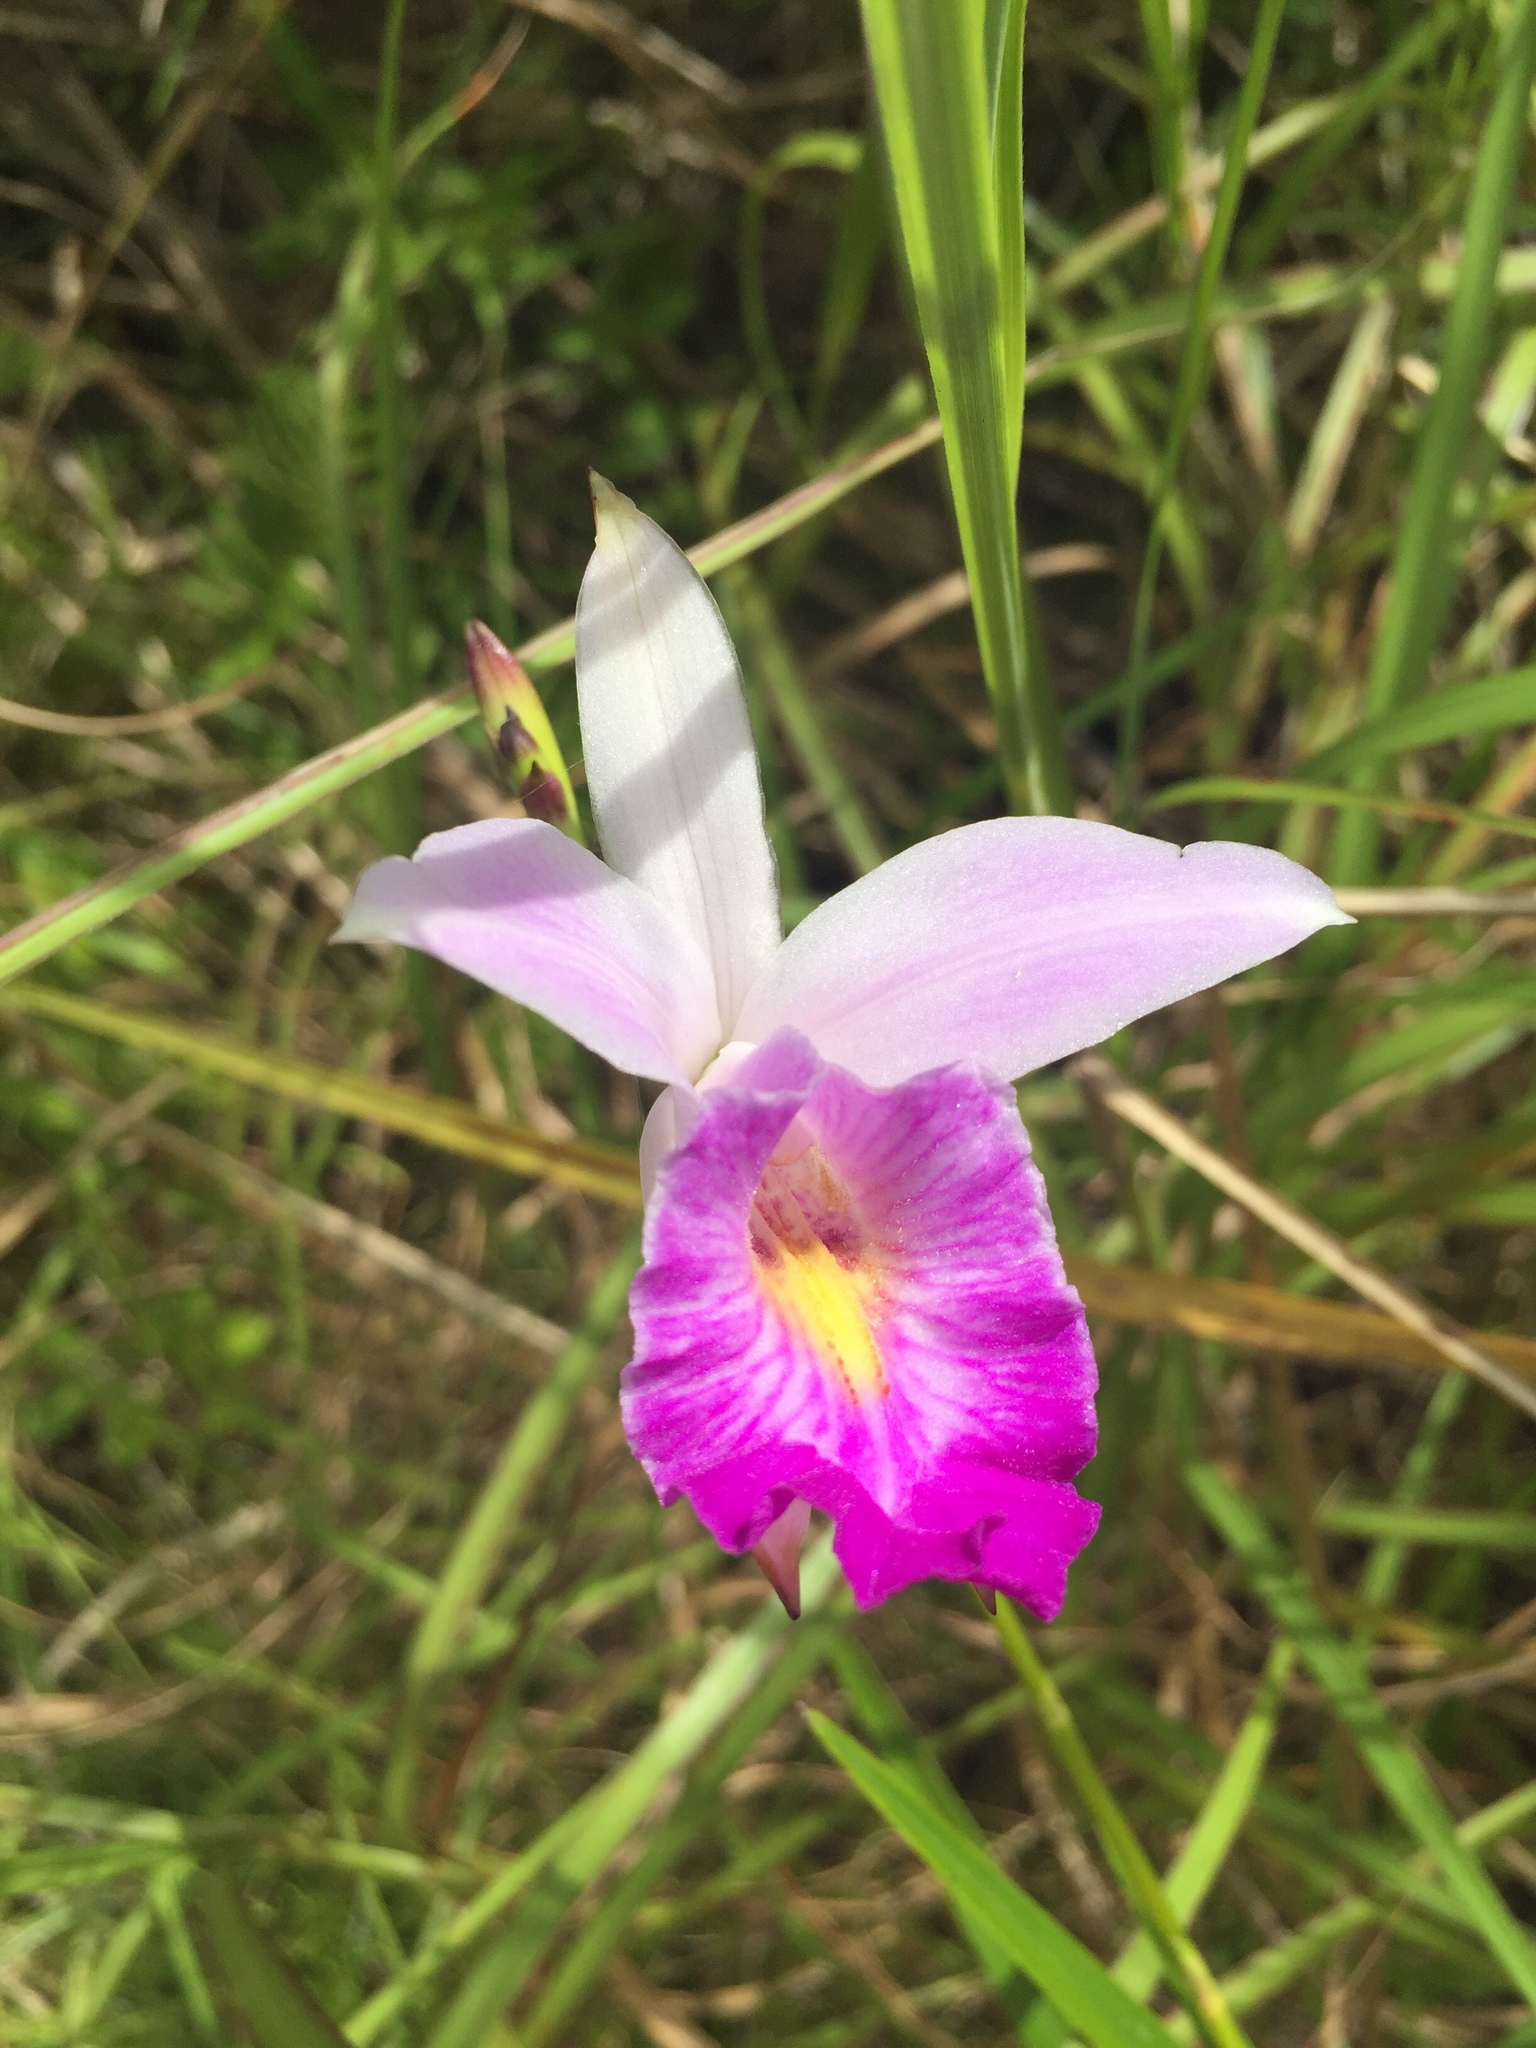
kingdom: Plantae
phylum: Tracheophyta
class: Liliopsida
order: Asparagales
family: Orchidaceae
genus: Arundina
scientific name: Arundina graminifolia
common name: Bamboo orchid
